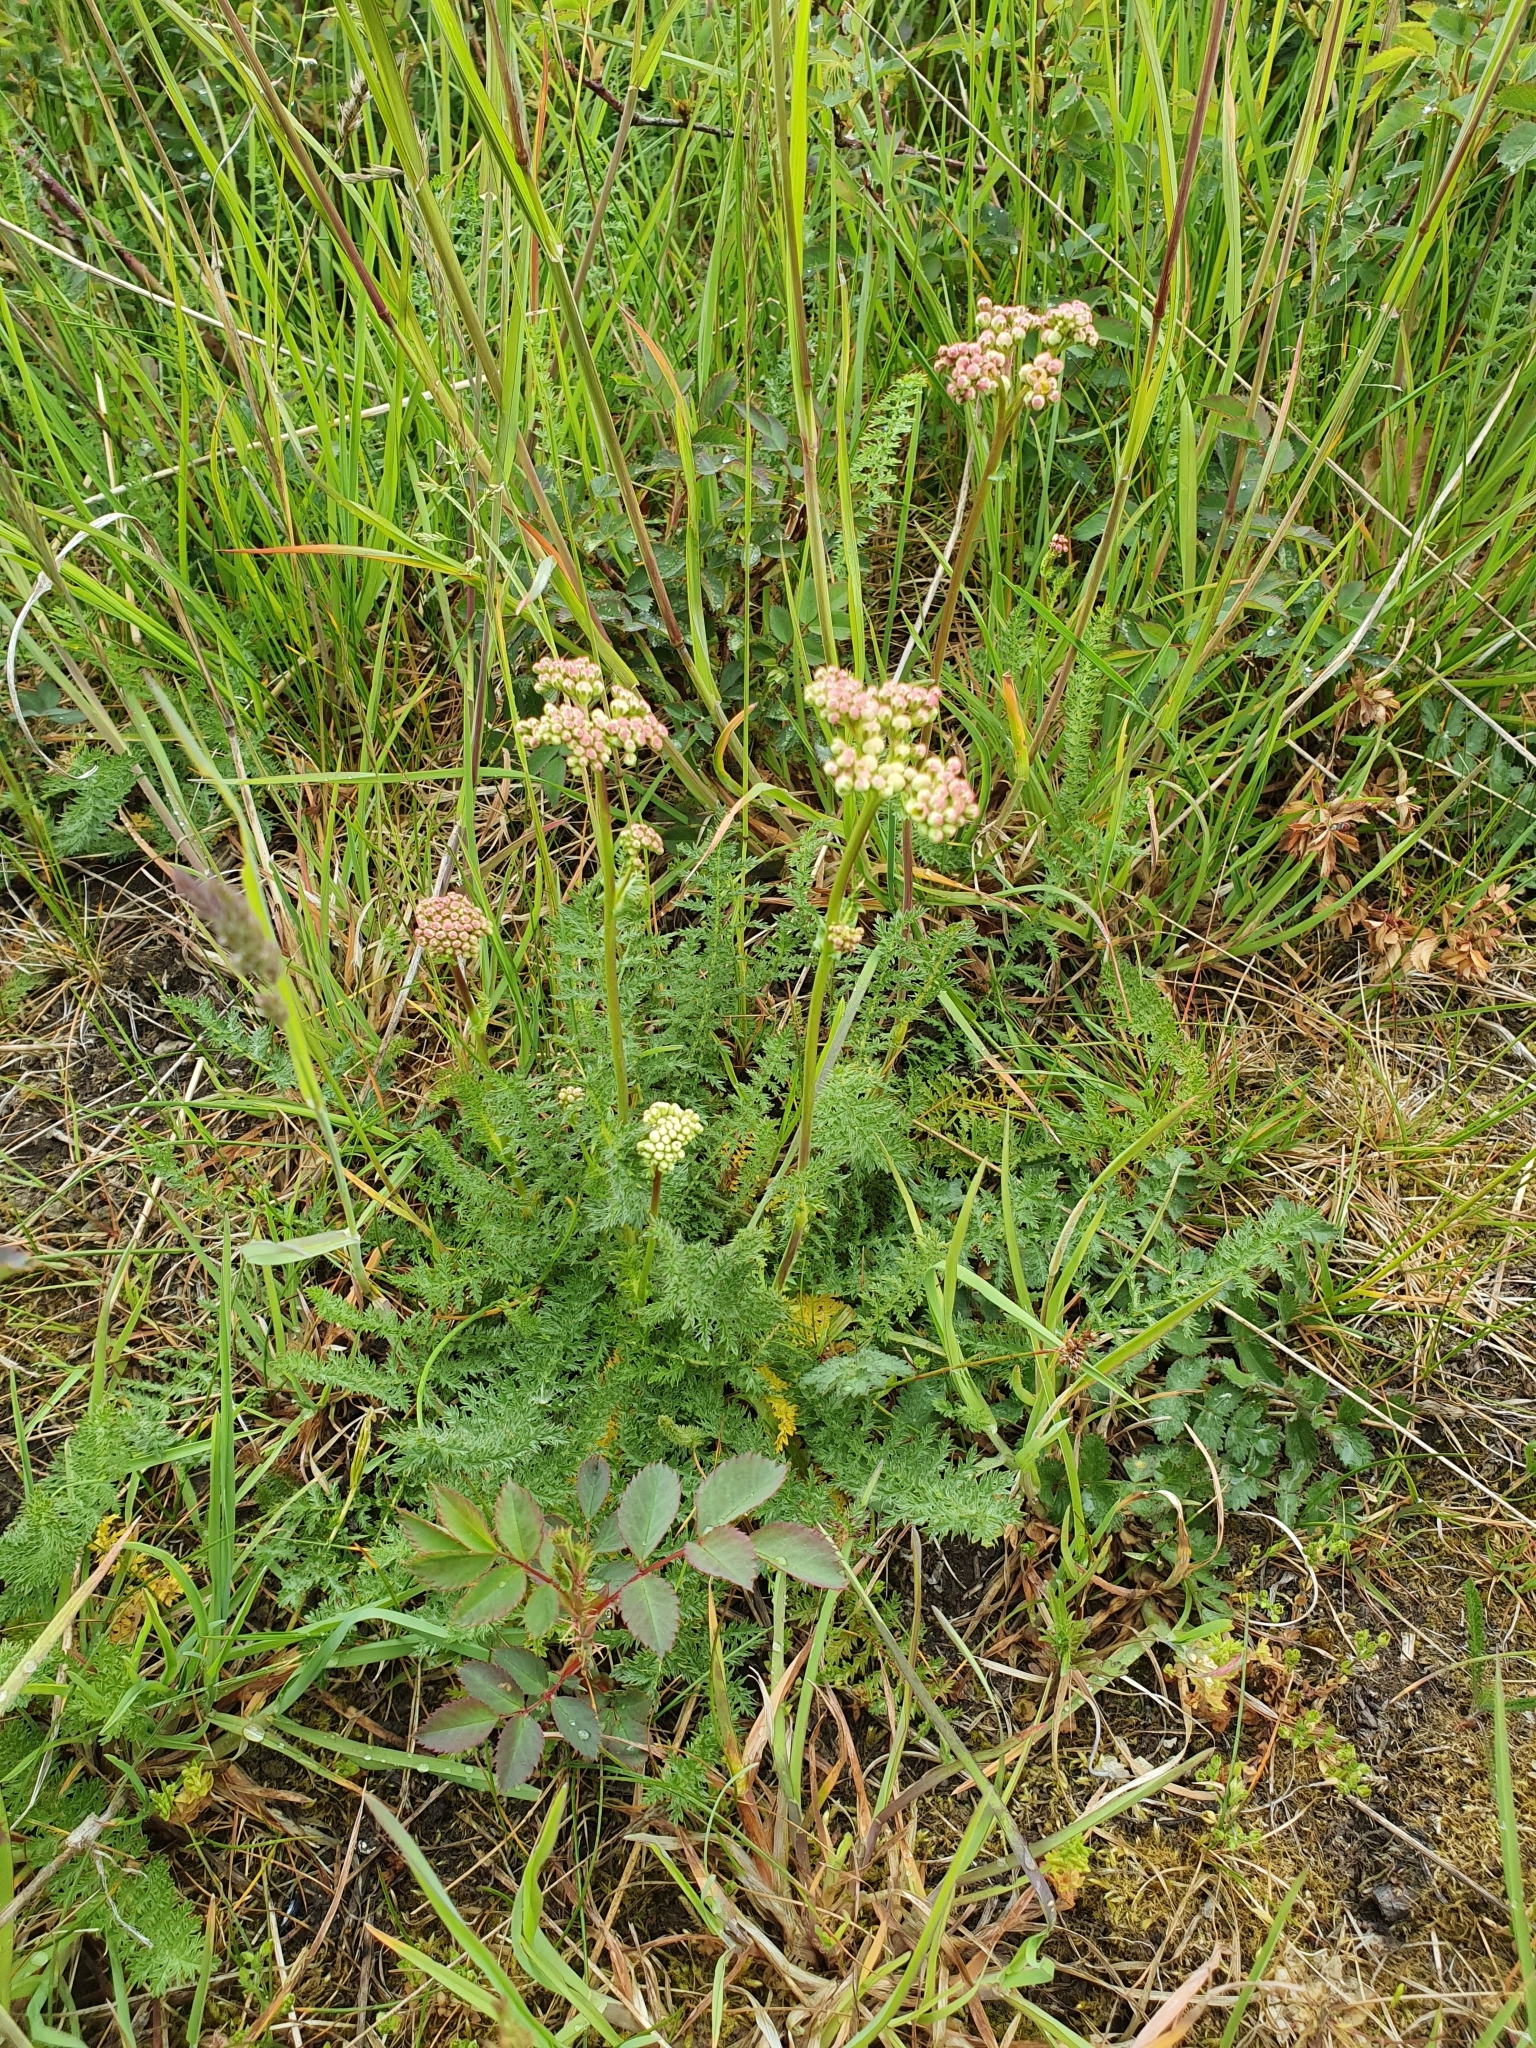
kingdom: Plantae
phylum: Tracheophyta
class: Magnoliopsida
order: Rosales
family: Rosaceae
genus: Filipendula
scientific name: Filipendula vulgaris
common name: Dropwort
